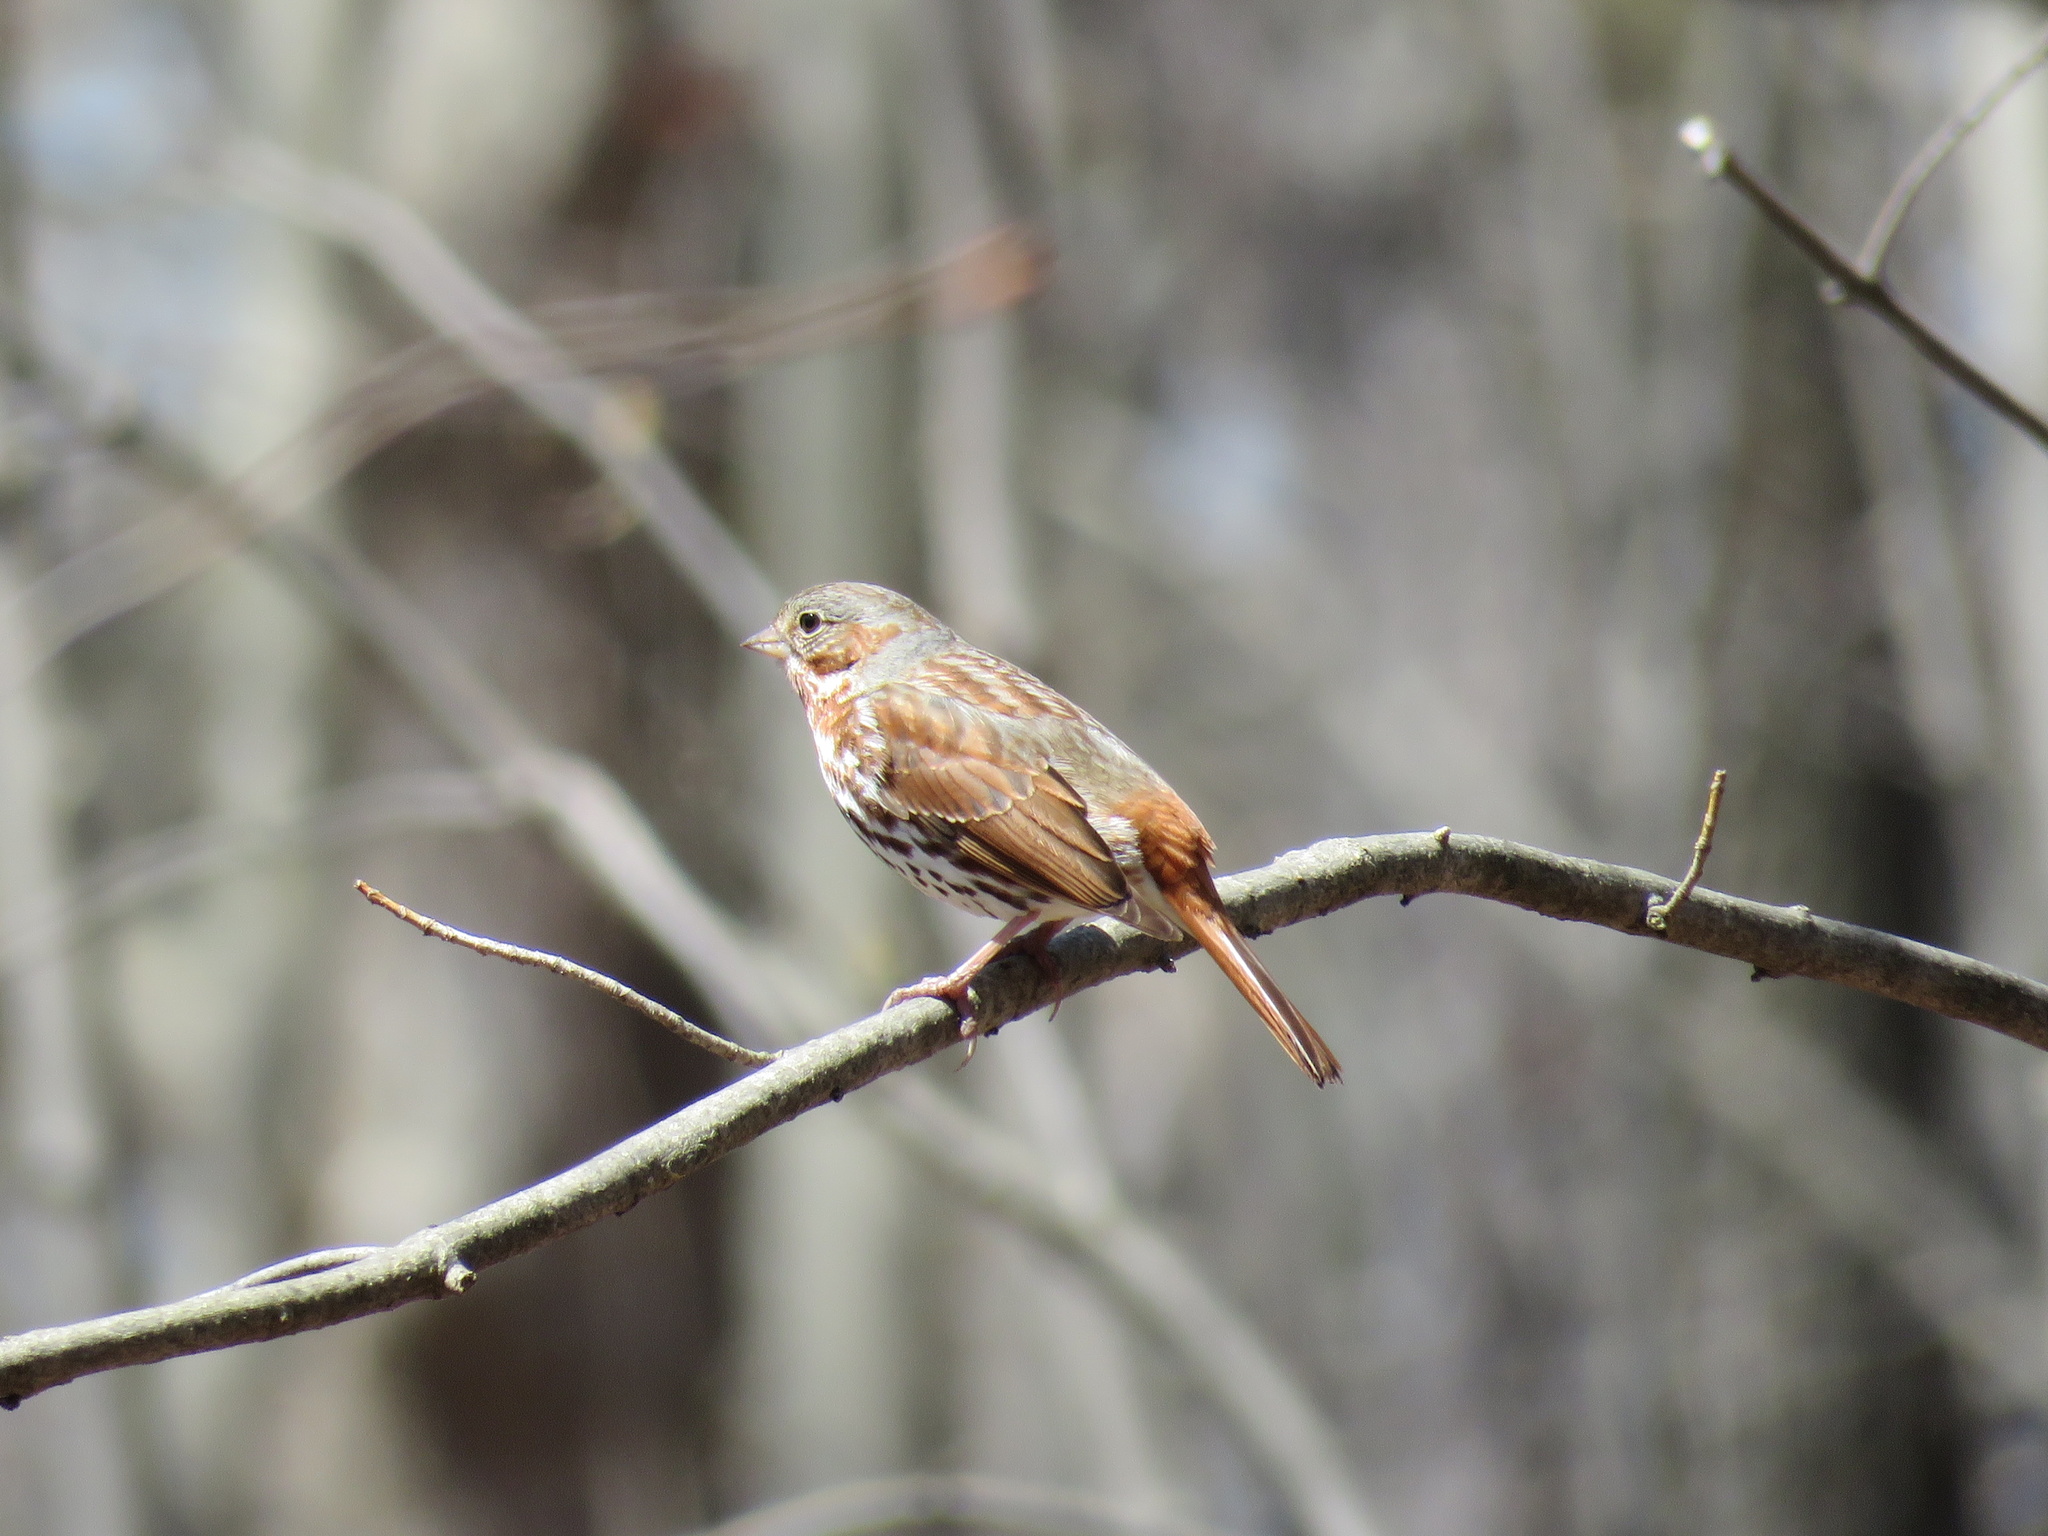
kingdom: Animalia
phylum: Chordata
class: Aves
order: Passeriformes
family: Passerellidae
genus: Passerella
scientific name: Passerella iliaca
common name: Fox sparrow
